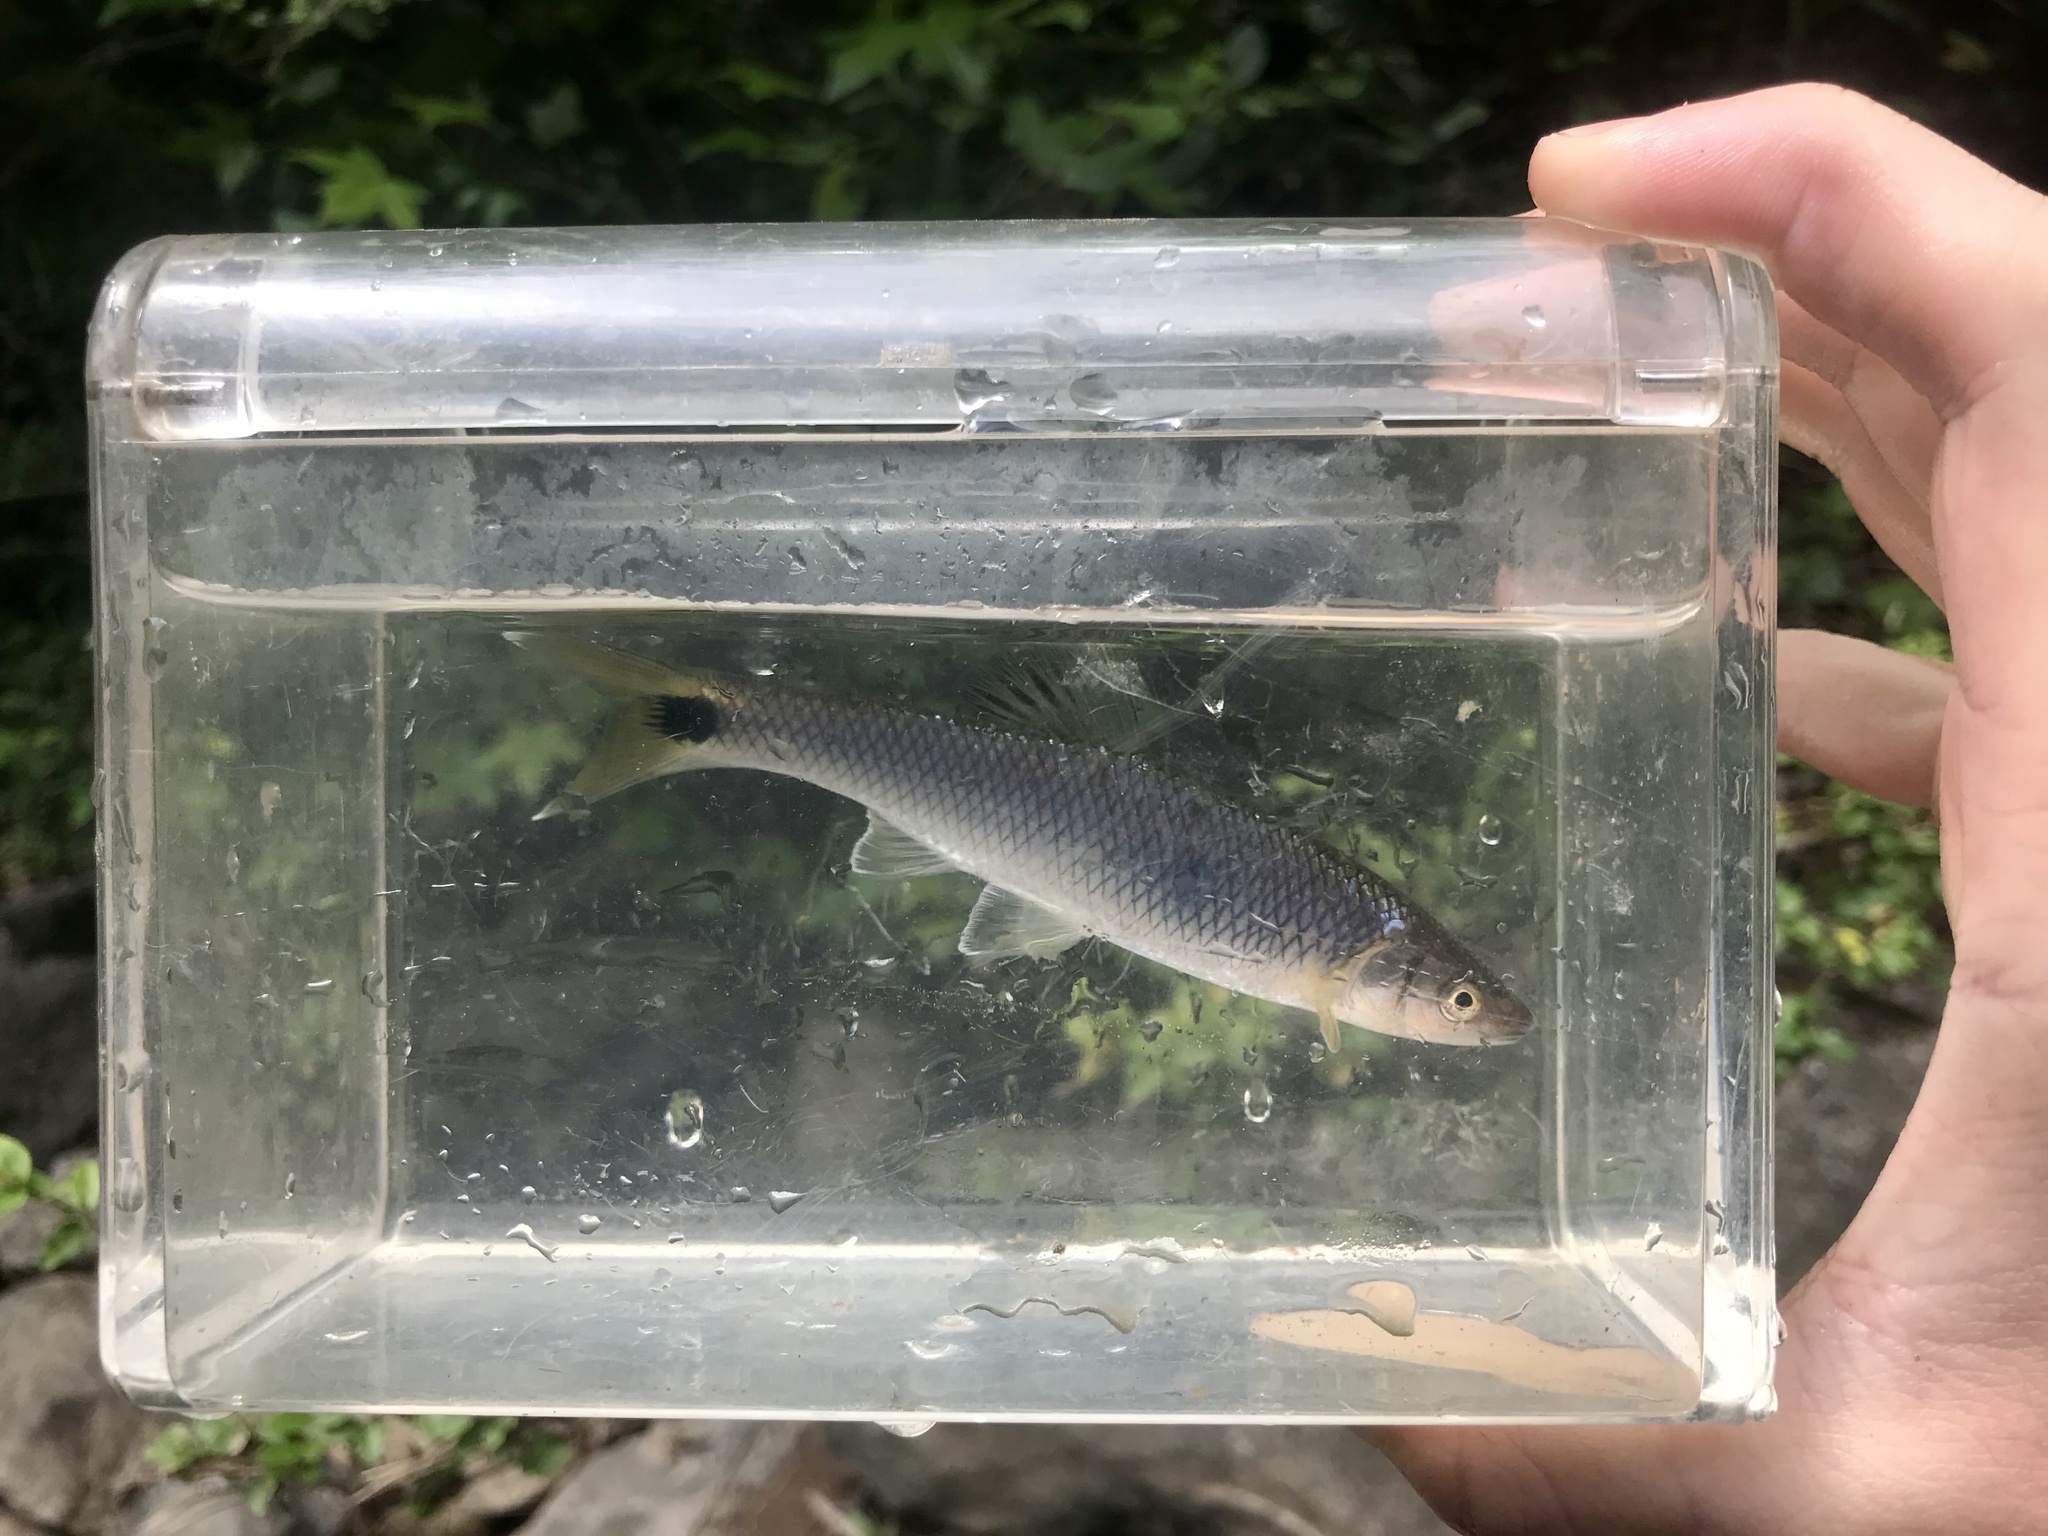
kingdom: Animalia
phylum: Chordata
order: Cypriniformes
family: Cyprinidae
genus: Cyprinella
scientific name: Cyprinella stigmatura
